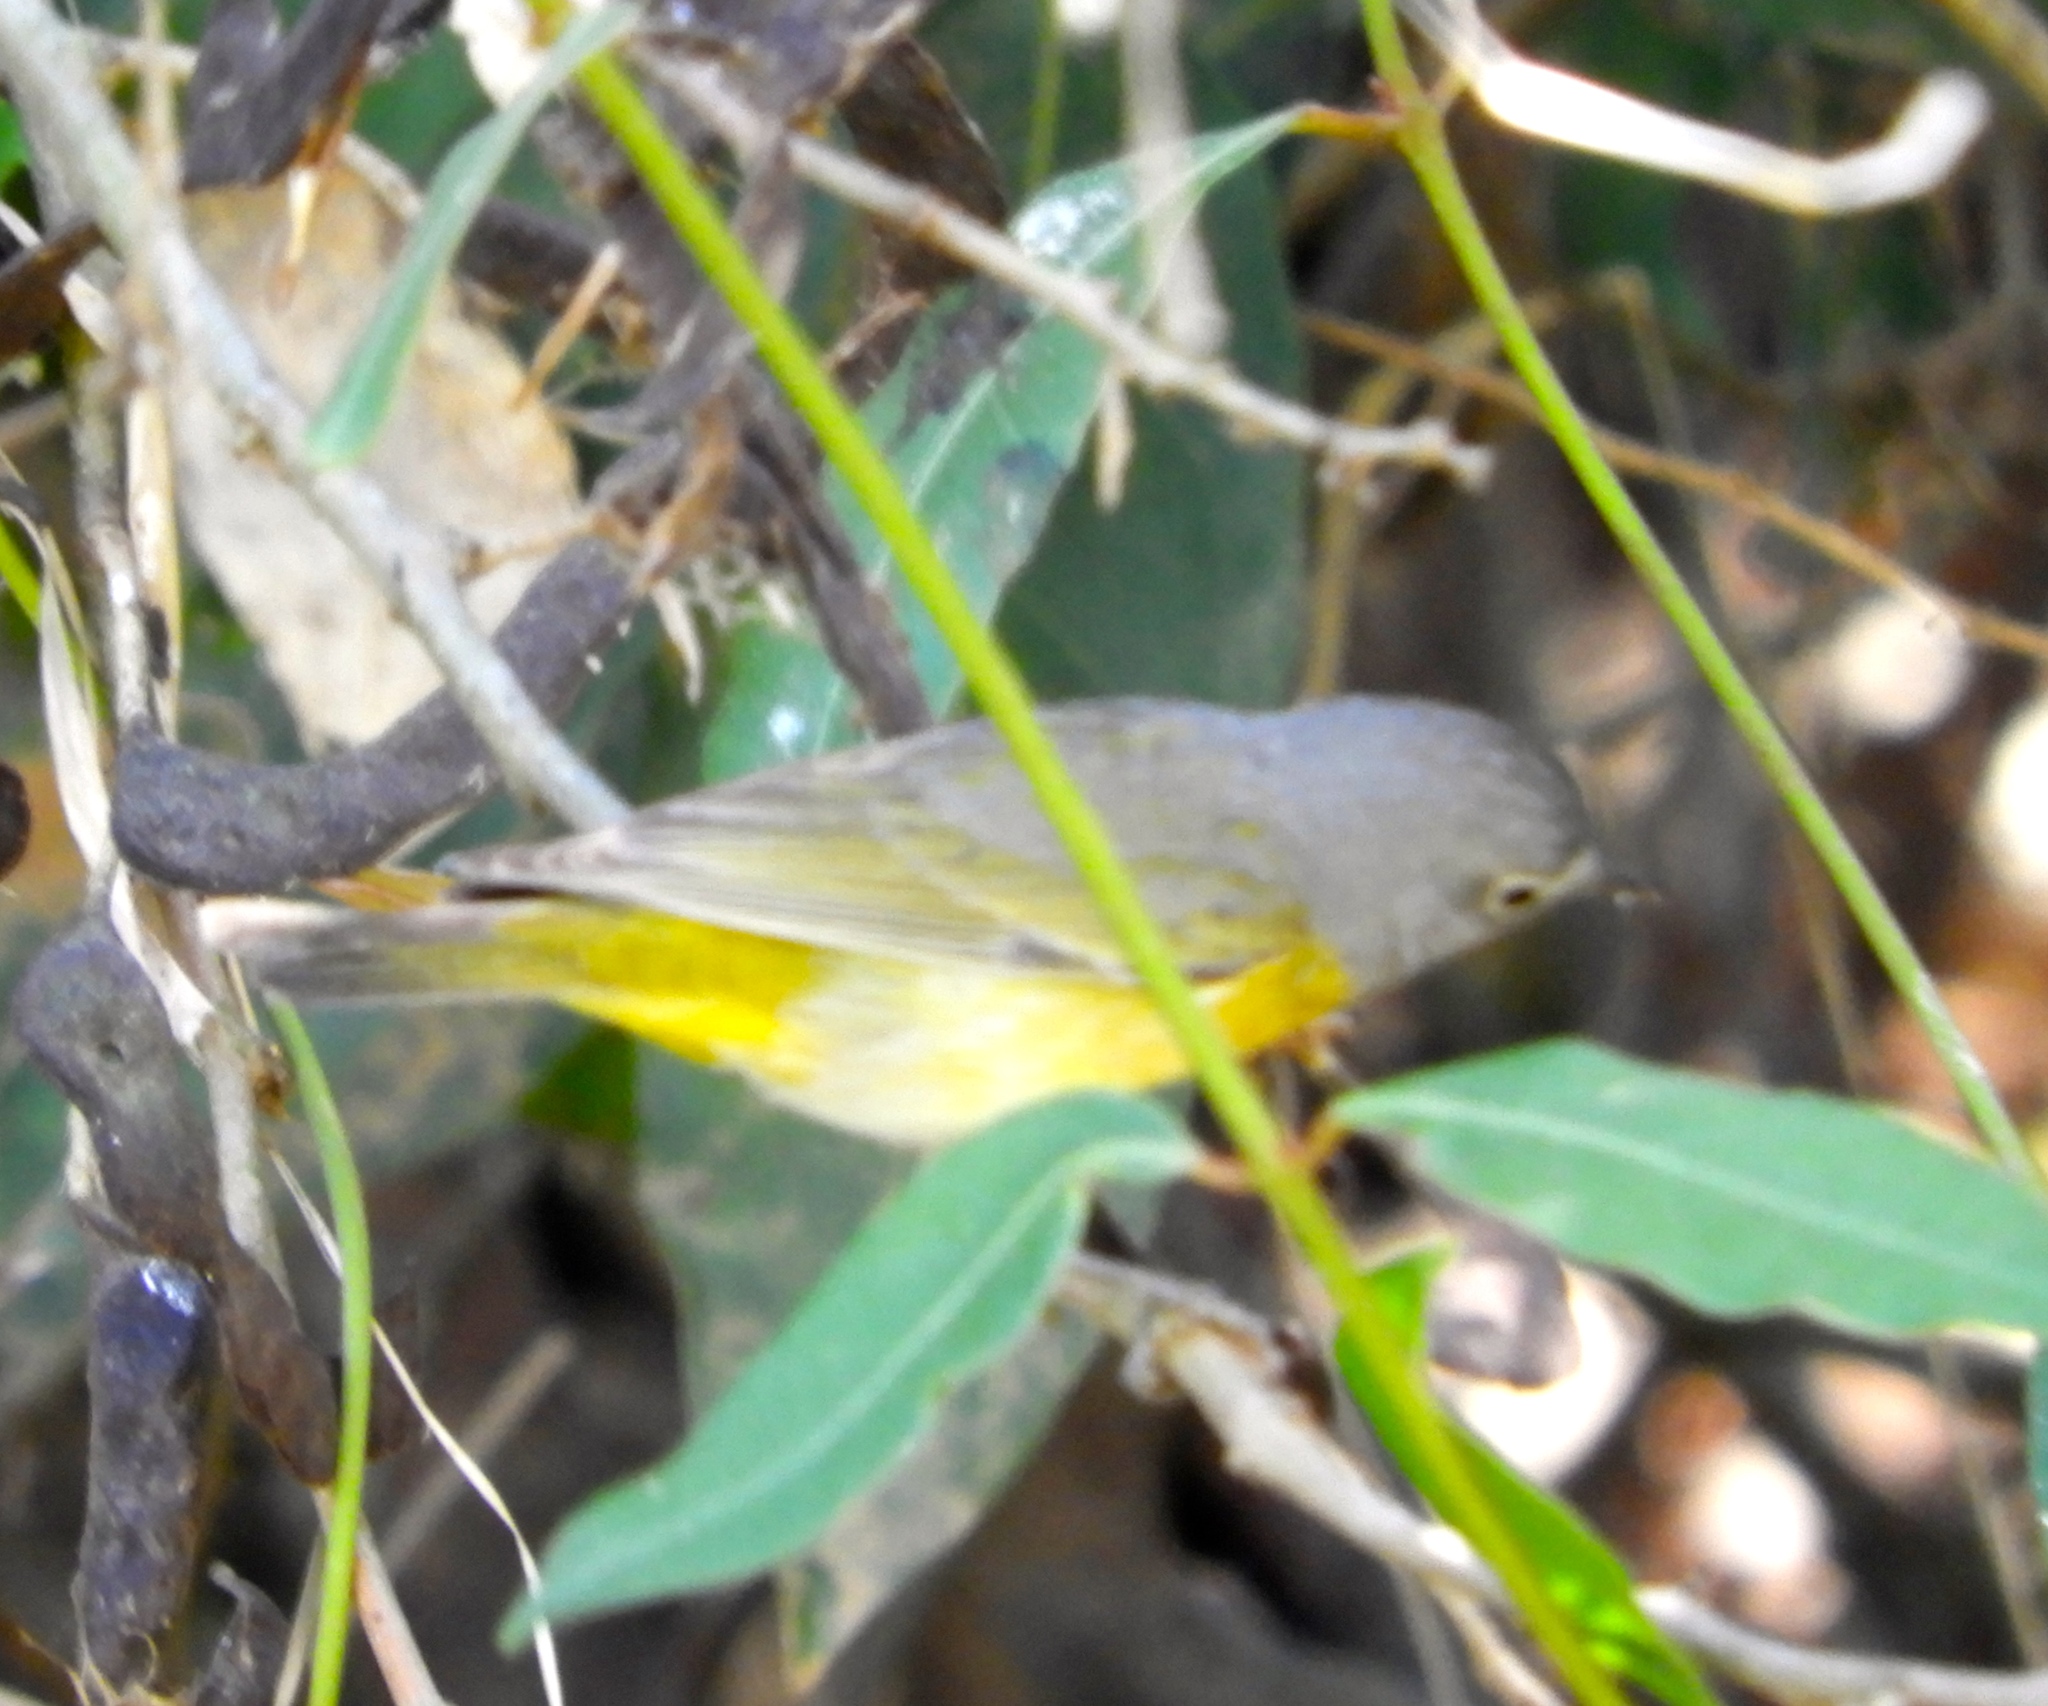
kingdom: Animalia
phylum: Chordata
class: Aves
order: Passeriformes
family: Parulidae
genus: Leiothlypis
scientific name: Leiothlypis ruficapilla
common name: Nashville warbler
